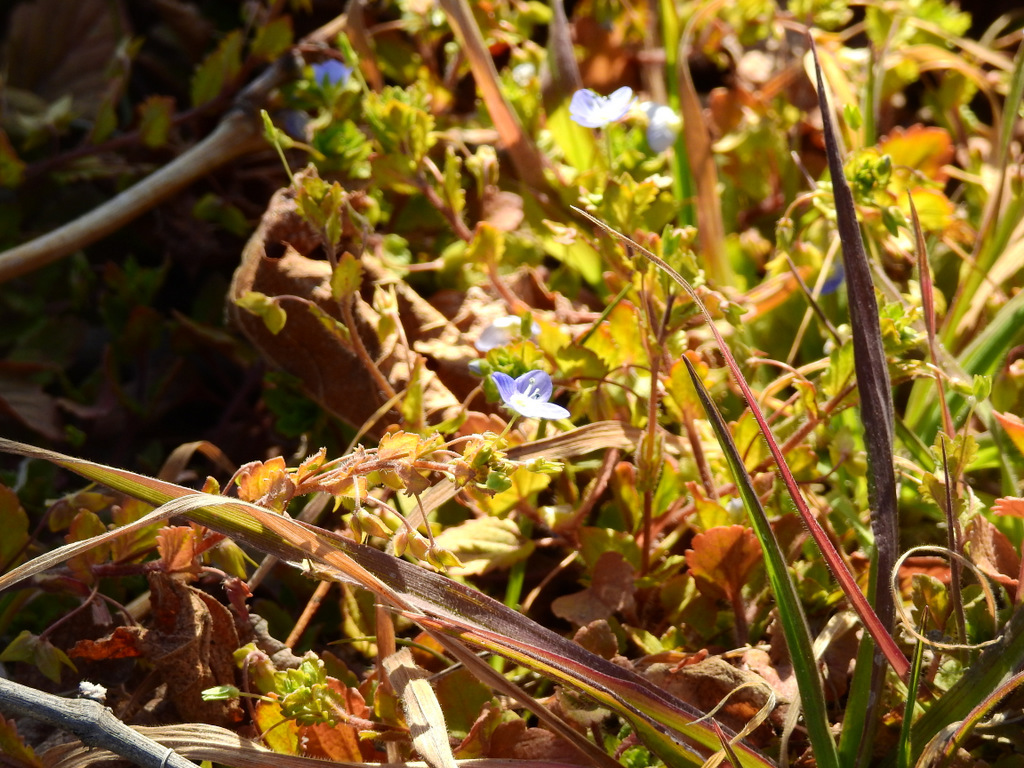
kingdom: Plantae
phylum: Tracheophyta
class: Magnoliopsida
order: Lamiales
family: Plantaginaceae
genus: Veronica
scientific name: Veronica persica
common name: Common field-speedwell
